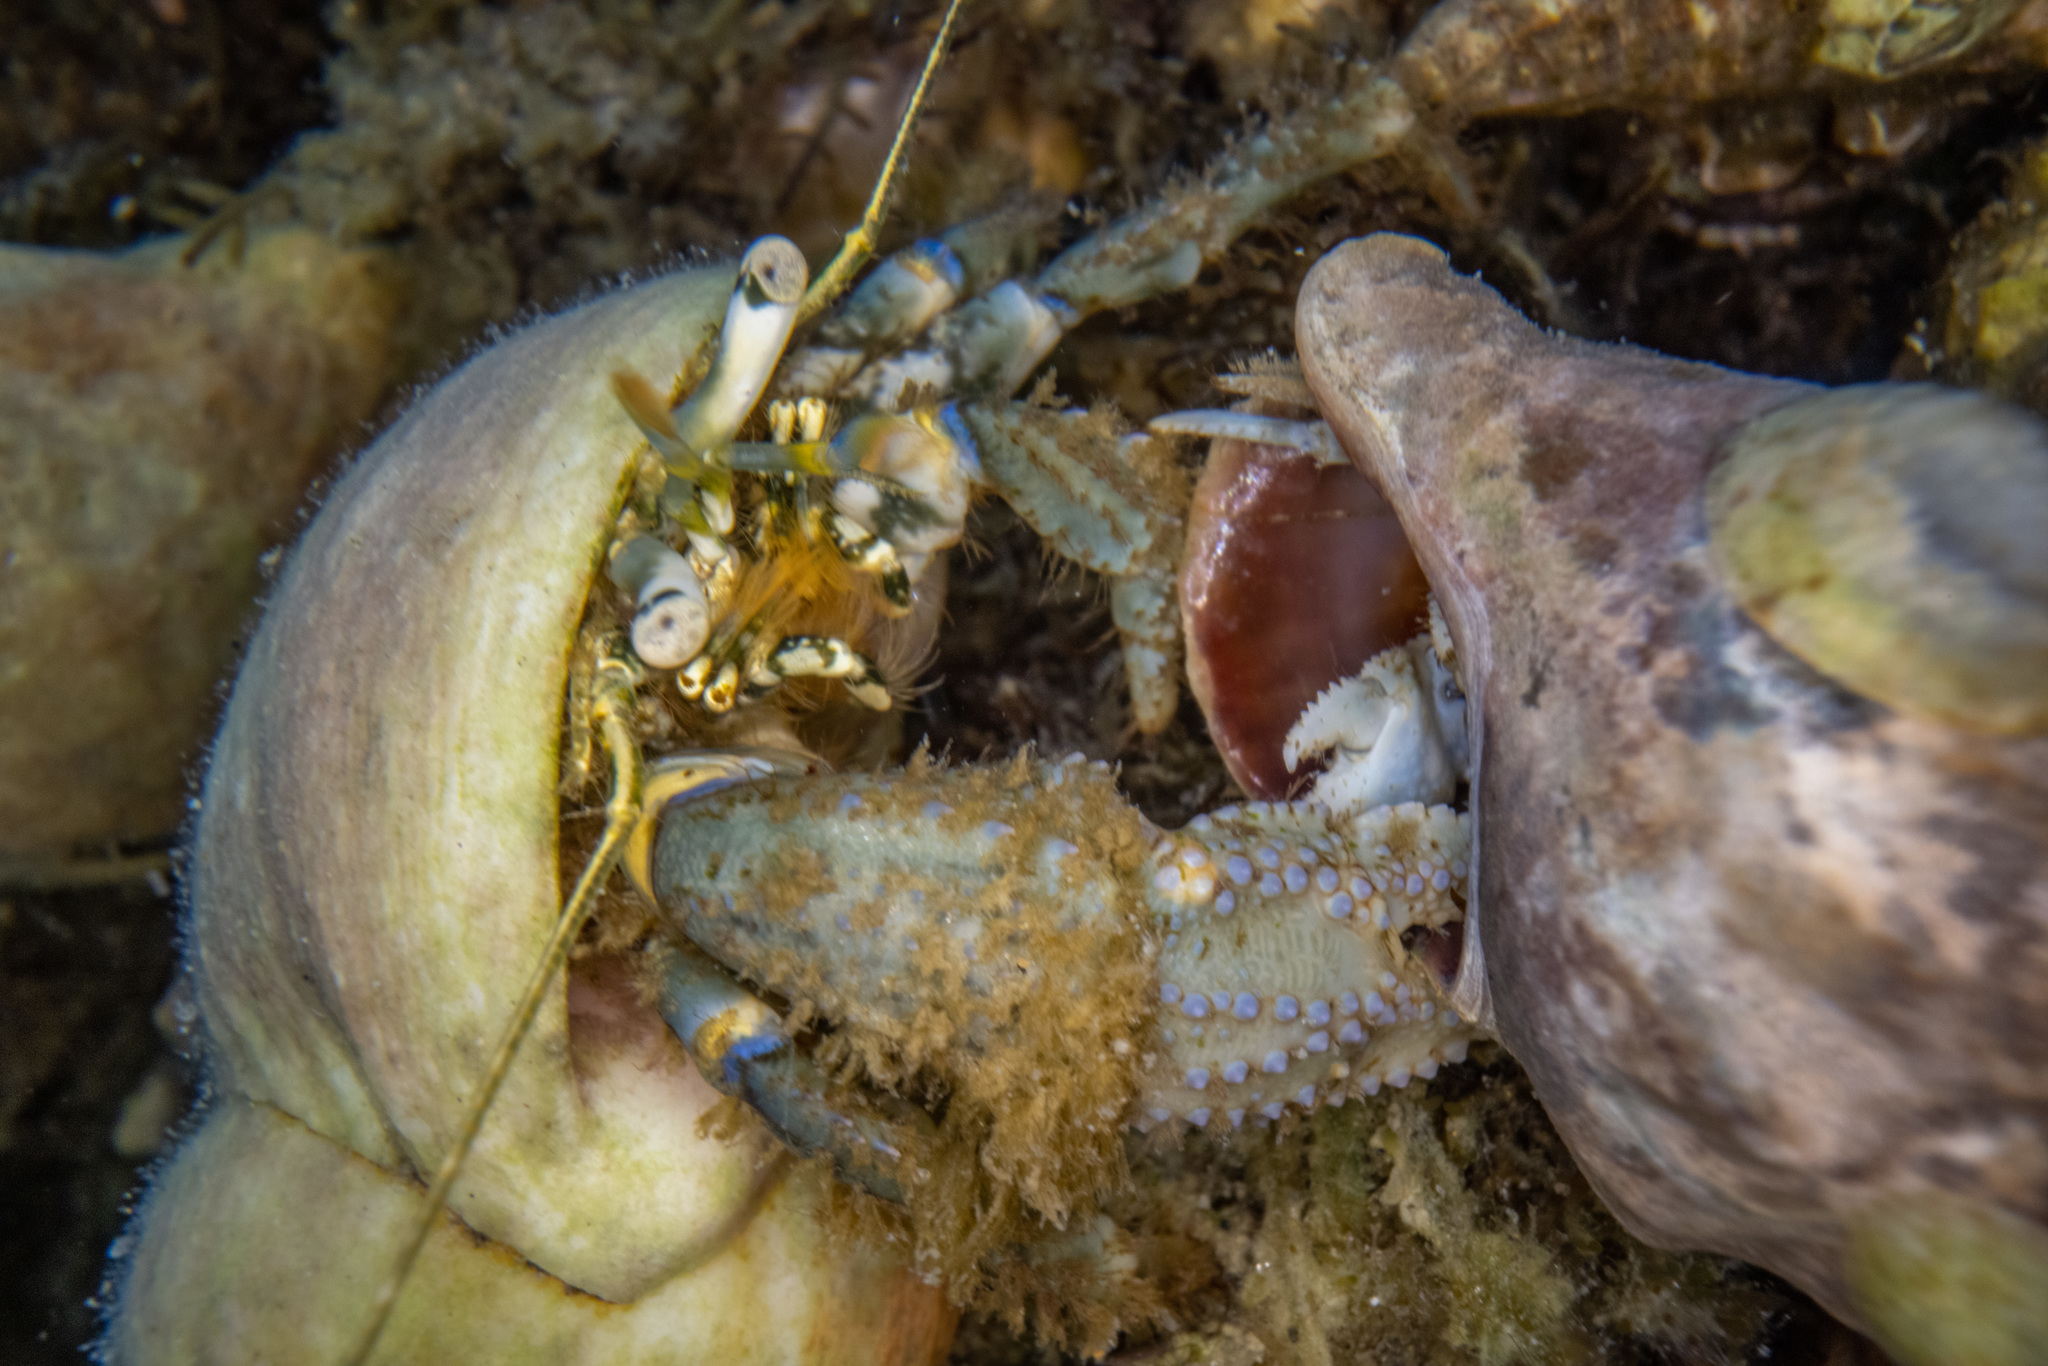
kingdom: Animalia
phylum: Arthropoda
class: Malacostraca
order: Decapoda
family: Paguridae
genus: Pagurus
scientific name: Pagurus novizealandiae
